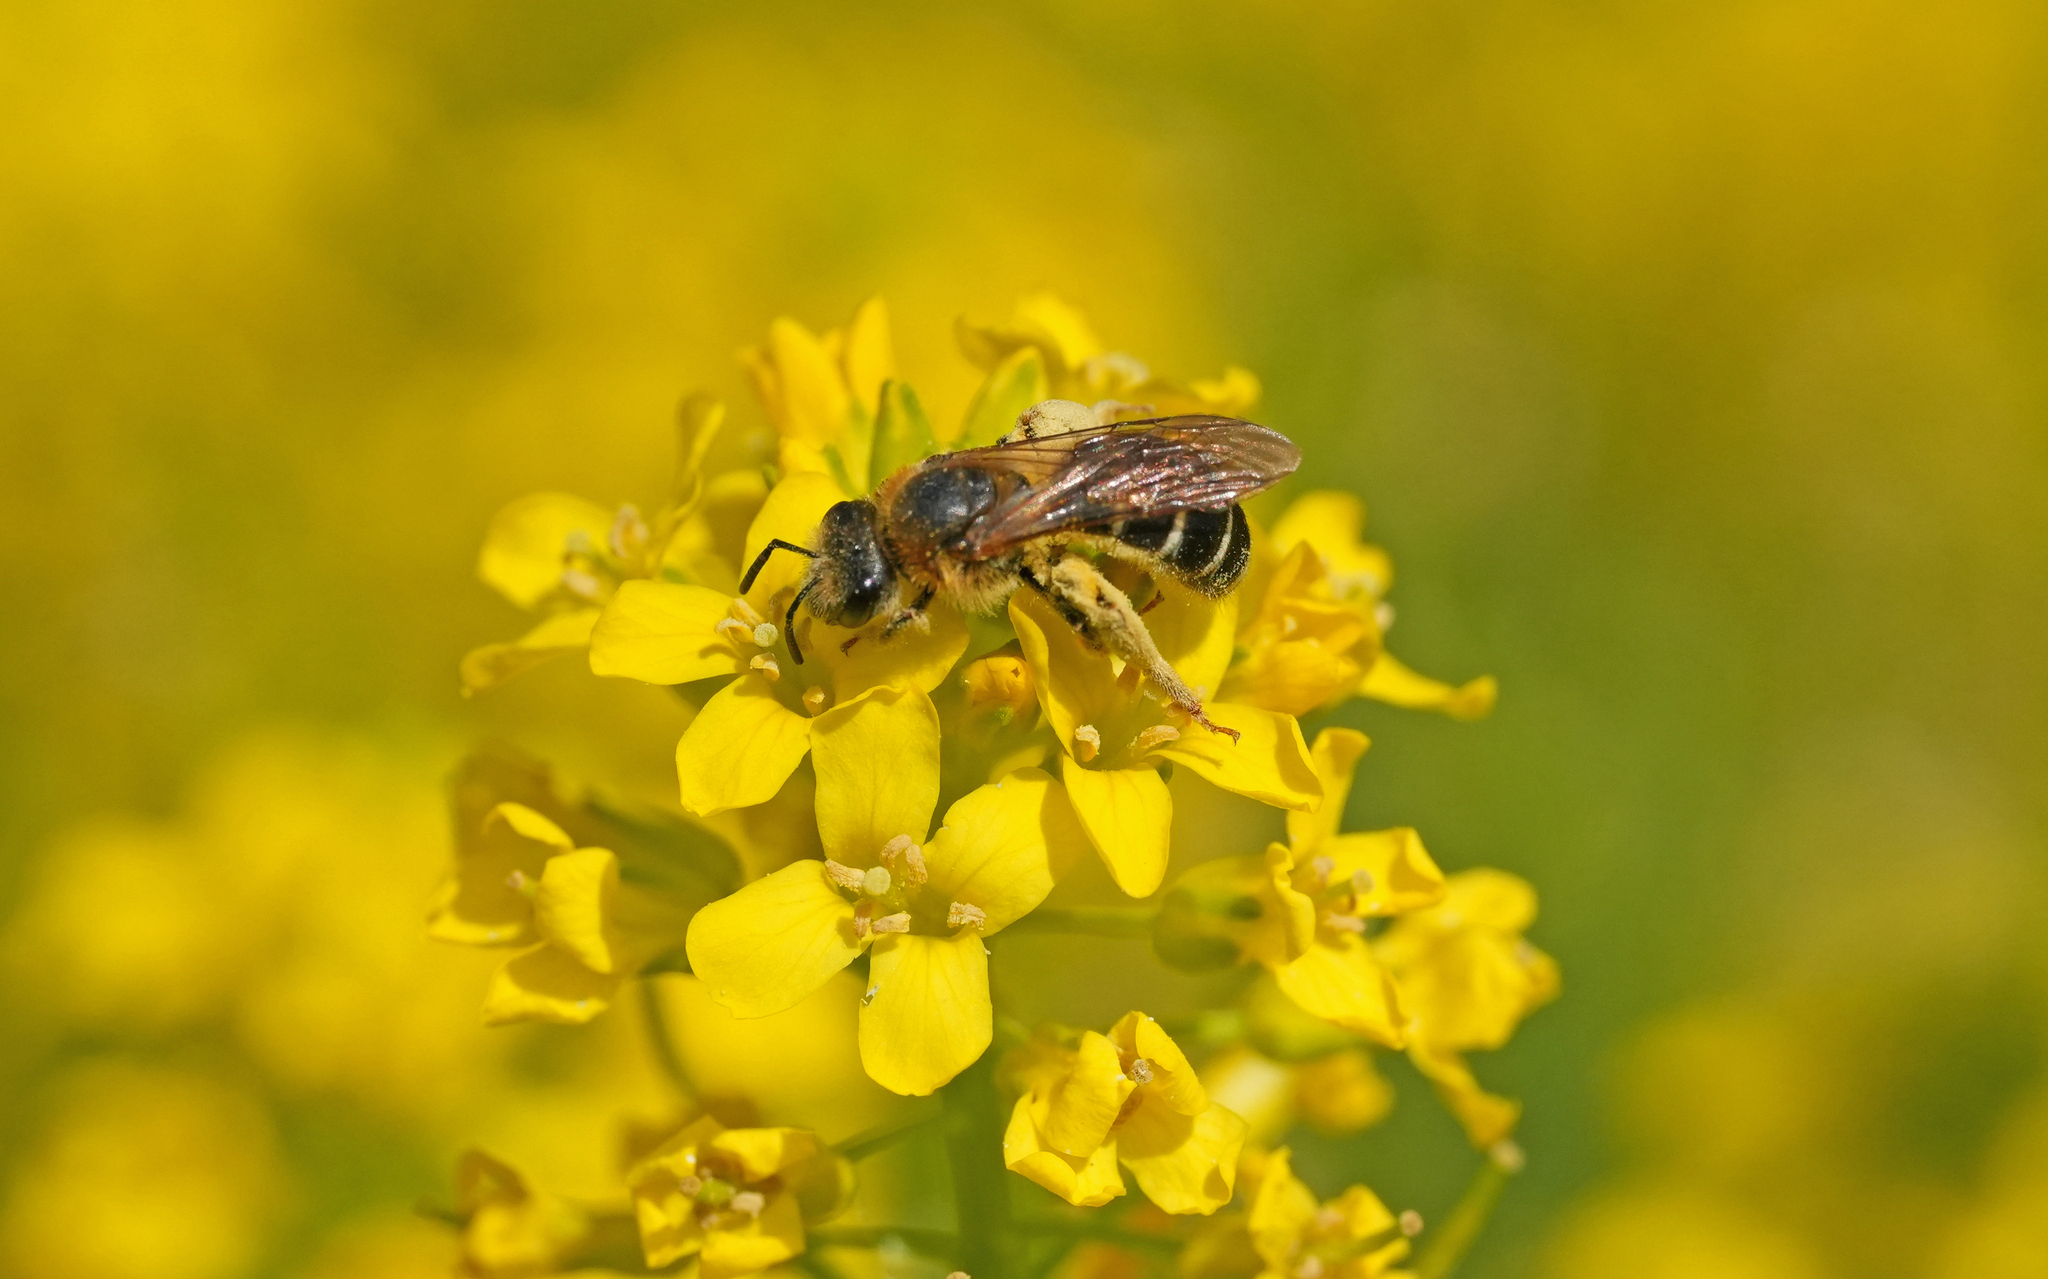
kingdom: Animalia
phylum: Arthropoda
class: Insecta
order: Hymenoptera
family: Halictidae
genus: Halictus
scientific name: Halictus rubicundus
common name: Orange-legged furrow bee
